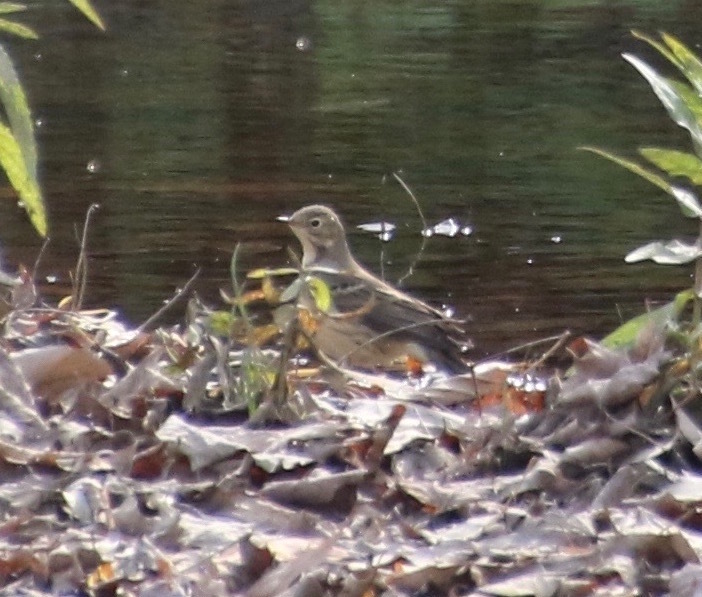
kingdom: Animalia
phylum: Chordata
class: Aves
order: Passeriformes
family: Motacillidae
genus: Anthus
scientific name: Anthus rubescens
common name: Buff-bellied pipit
